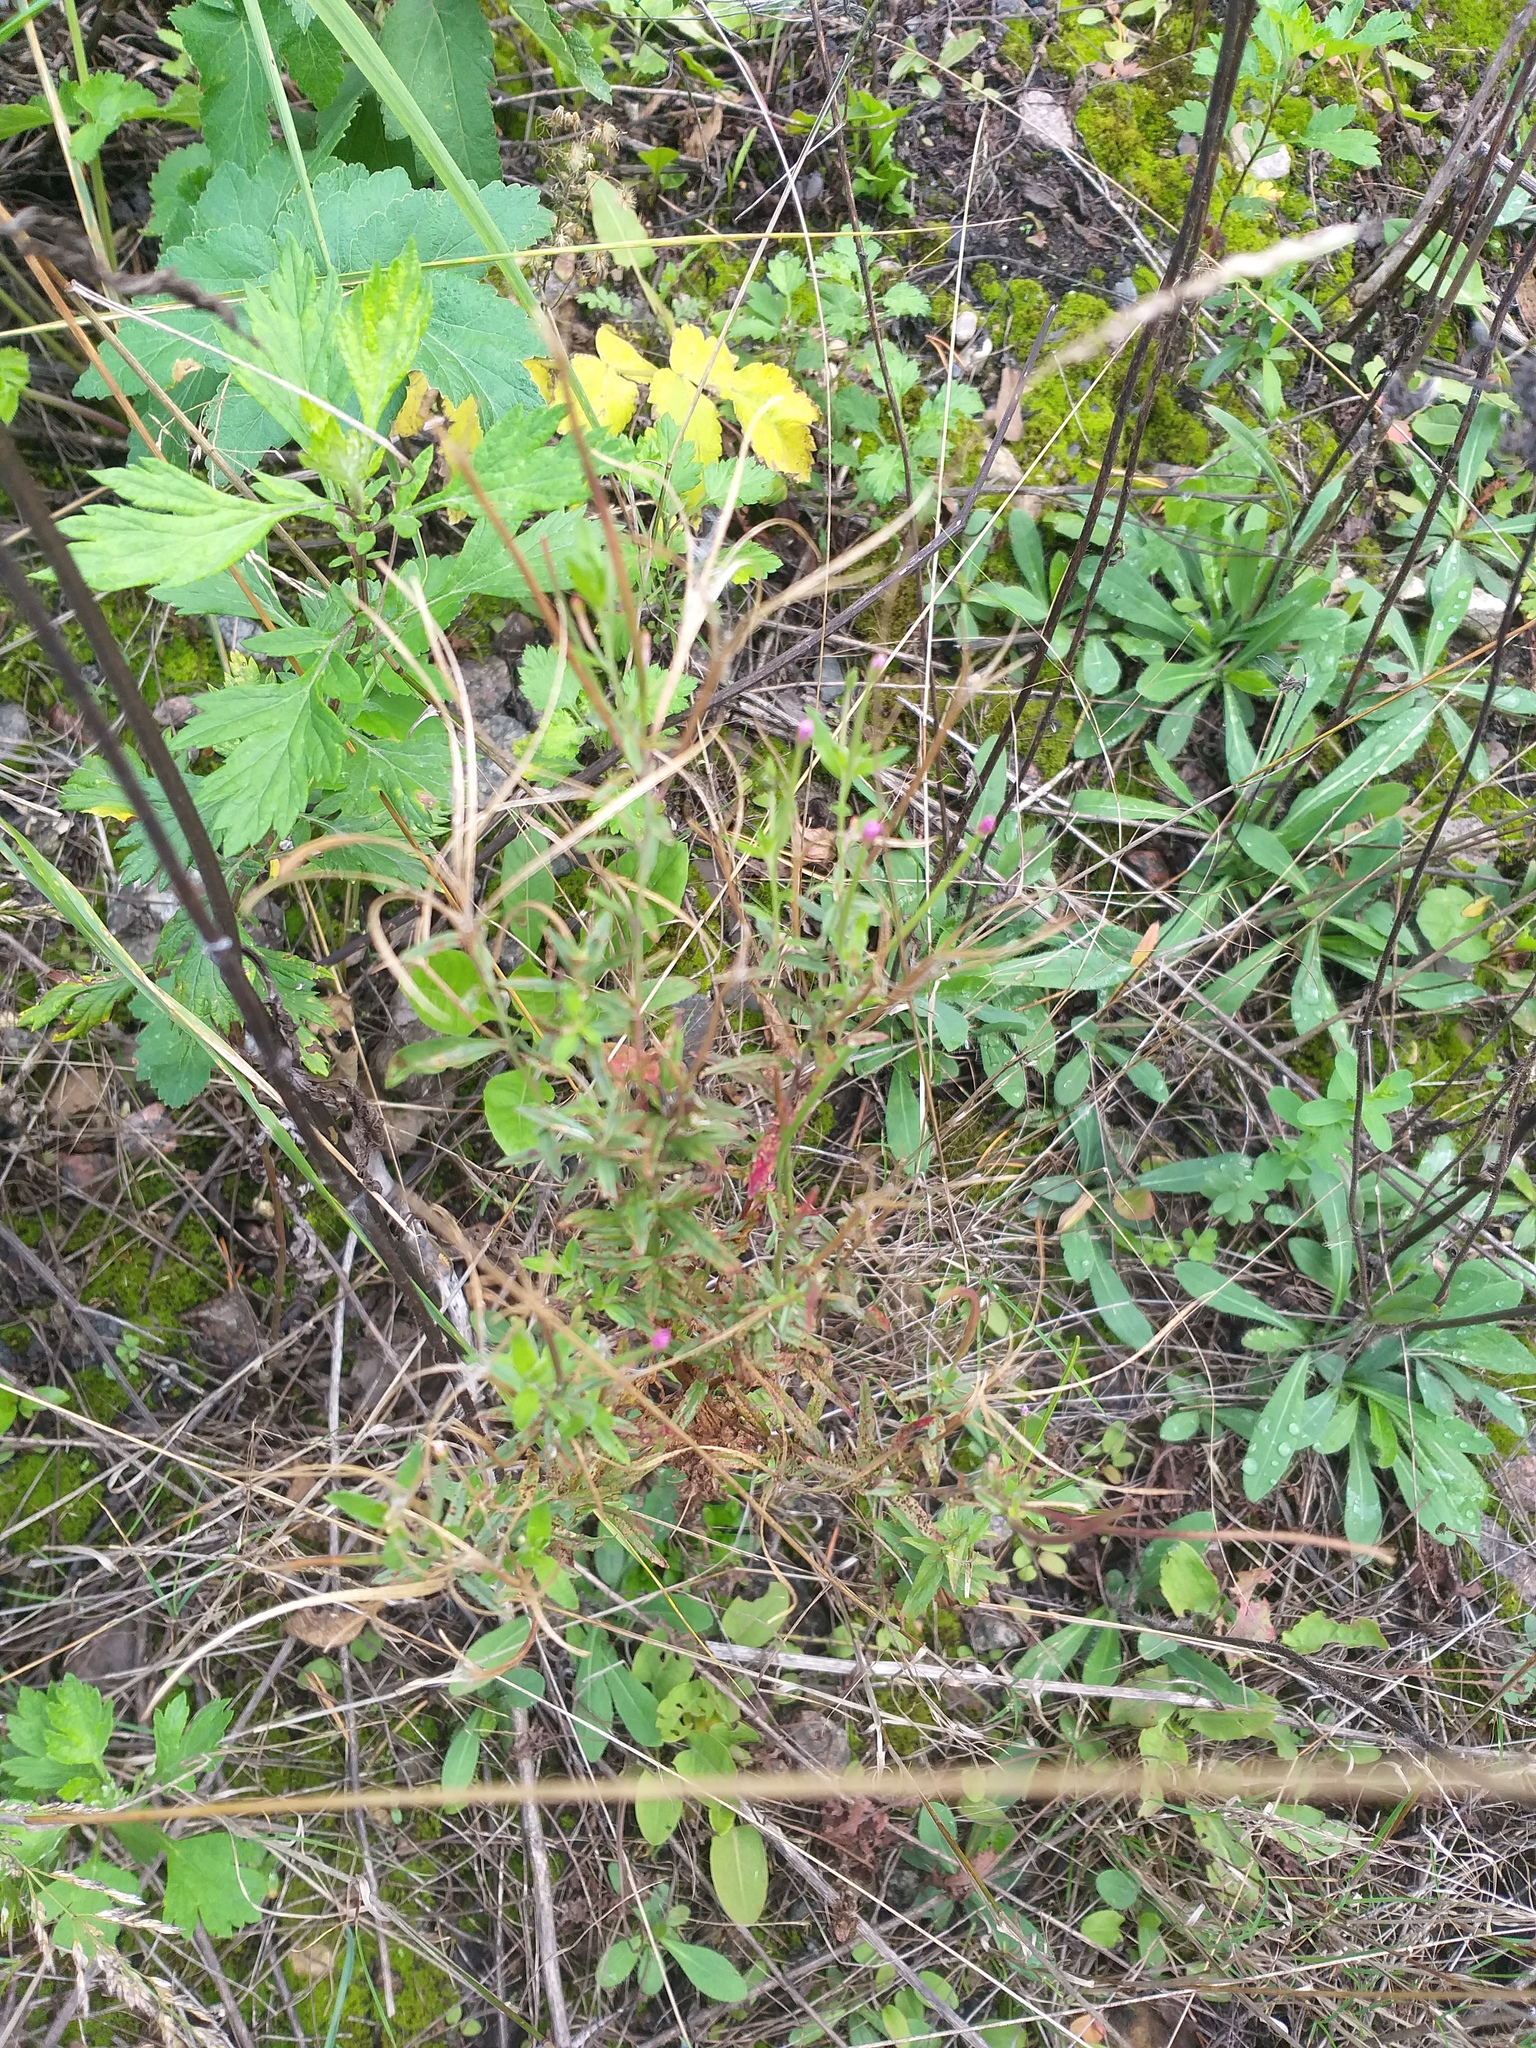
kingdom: Plantae
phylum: Tracheophyta
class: Magnoliopsida
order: Myrtales
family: Onagraceae
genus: Epilobium
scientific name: Epilobium tetragonum
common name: Square-stemmed willowherb
